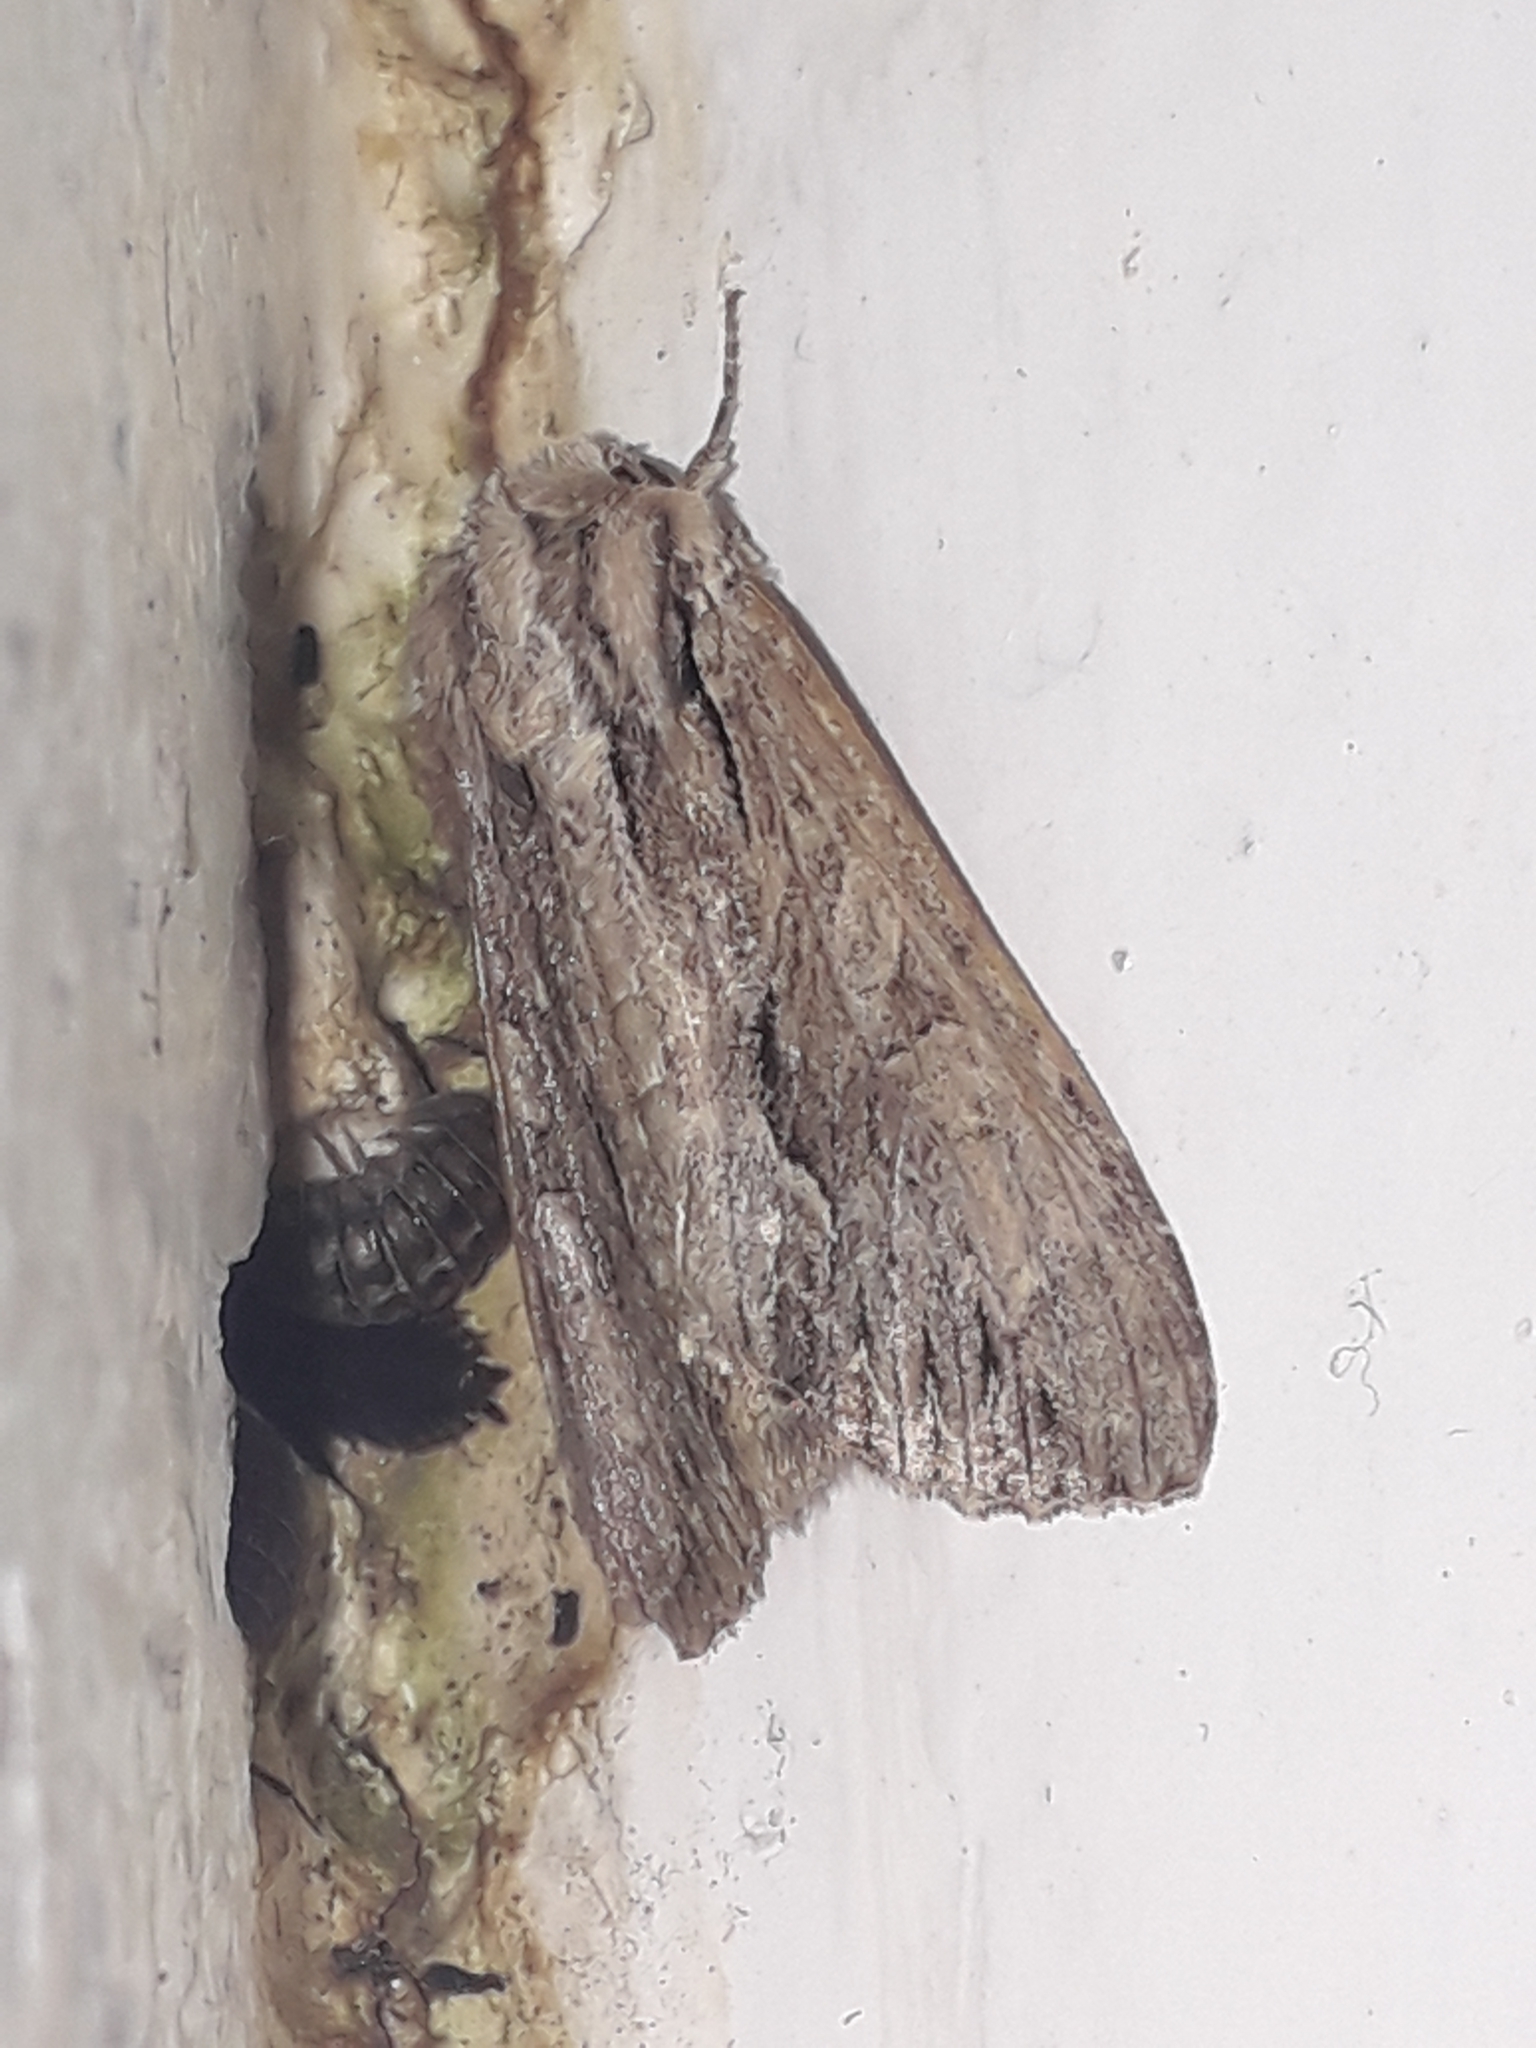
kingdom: Animalia
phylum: Arthropoda
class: Insecta
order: Lepidoptera
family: Noctuidae
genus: Apamea
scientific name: Apamea monoglypha
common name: Dark arches
